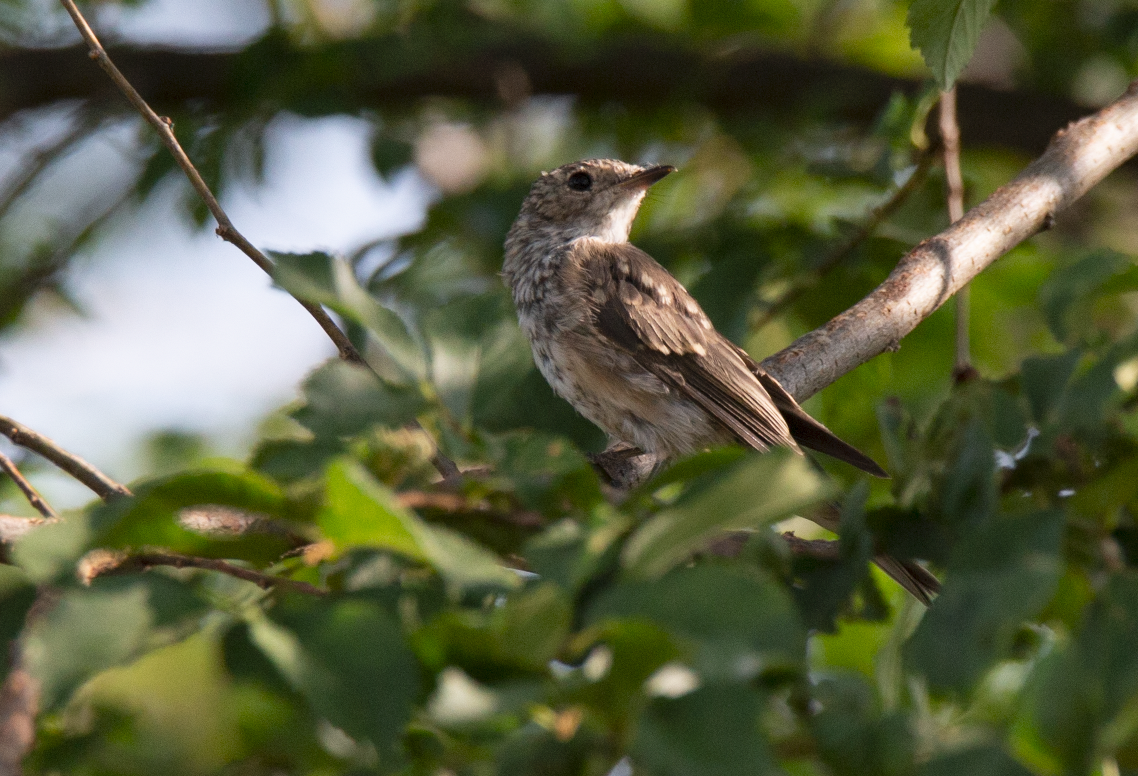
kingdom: Animalia
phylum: Chordata
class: Aves
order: Passeriformes
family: Muscicapidae
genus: Muscicapa
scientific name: Muscicapa striata
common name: Spotted flycatcher
